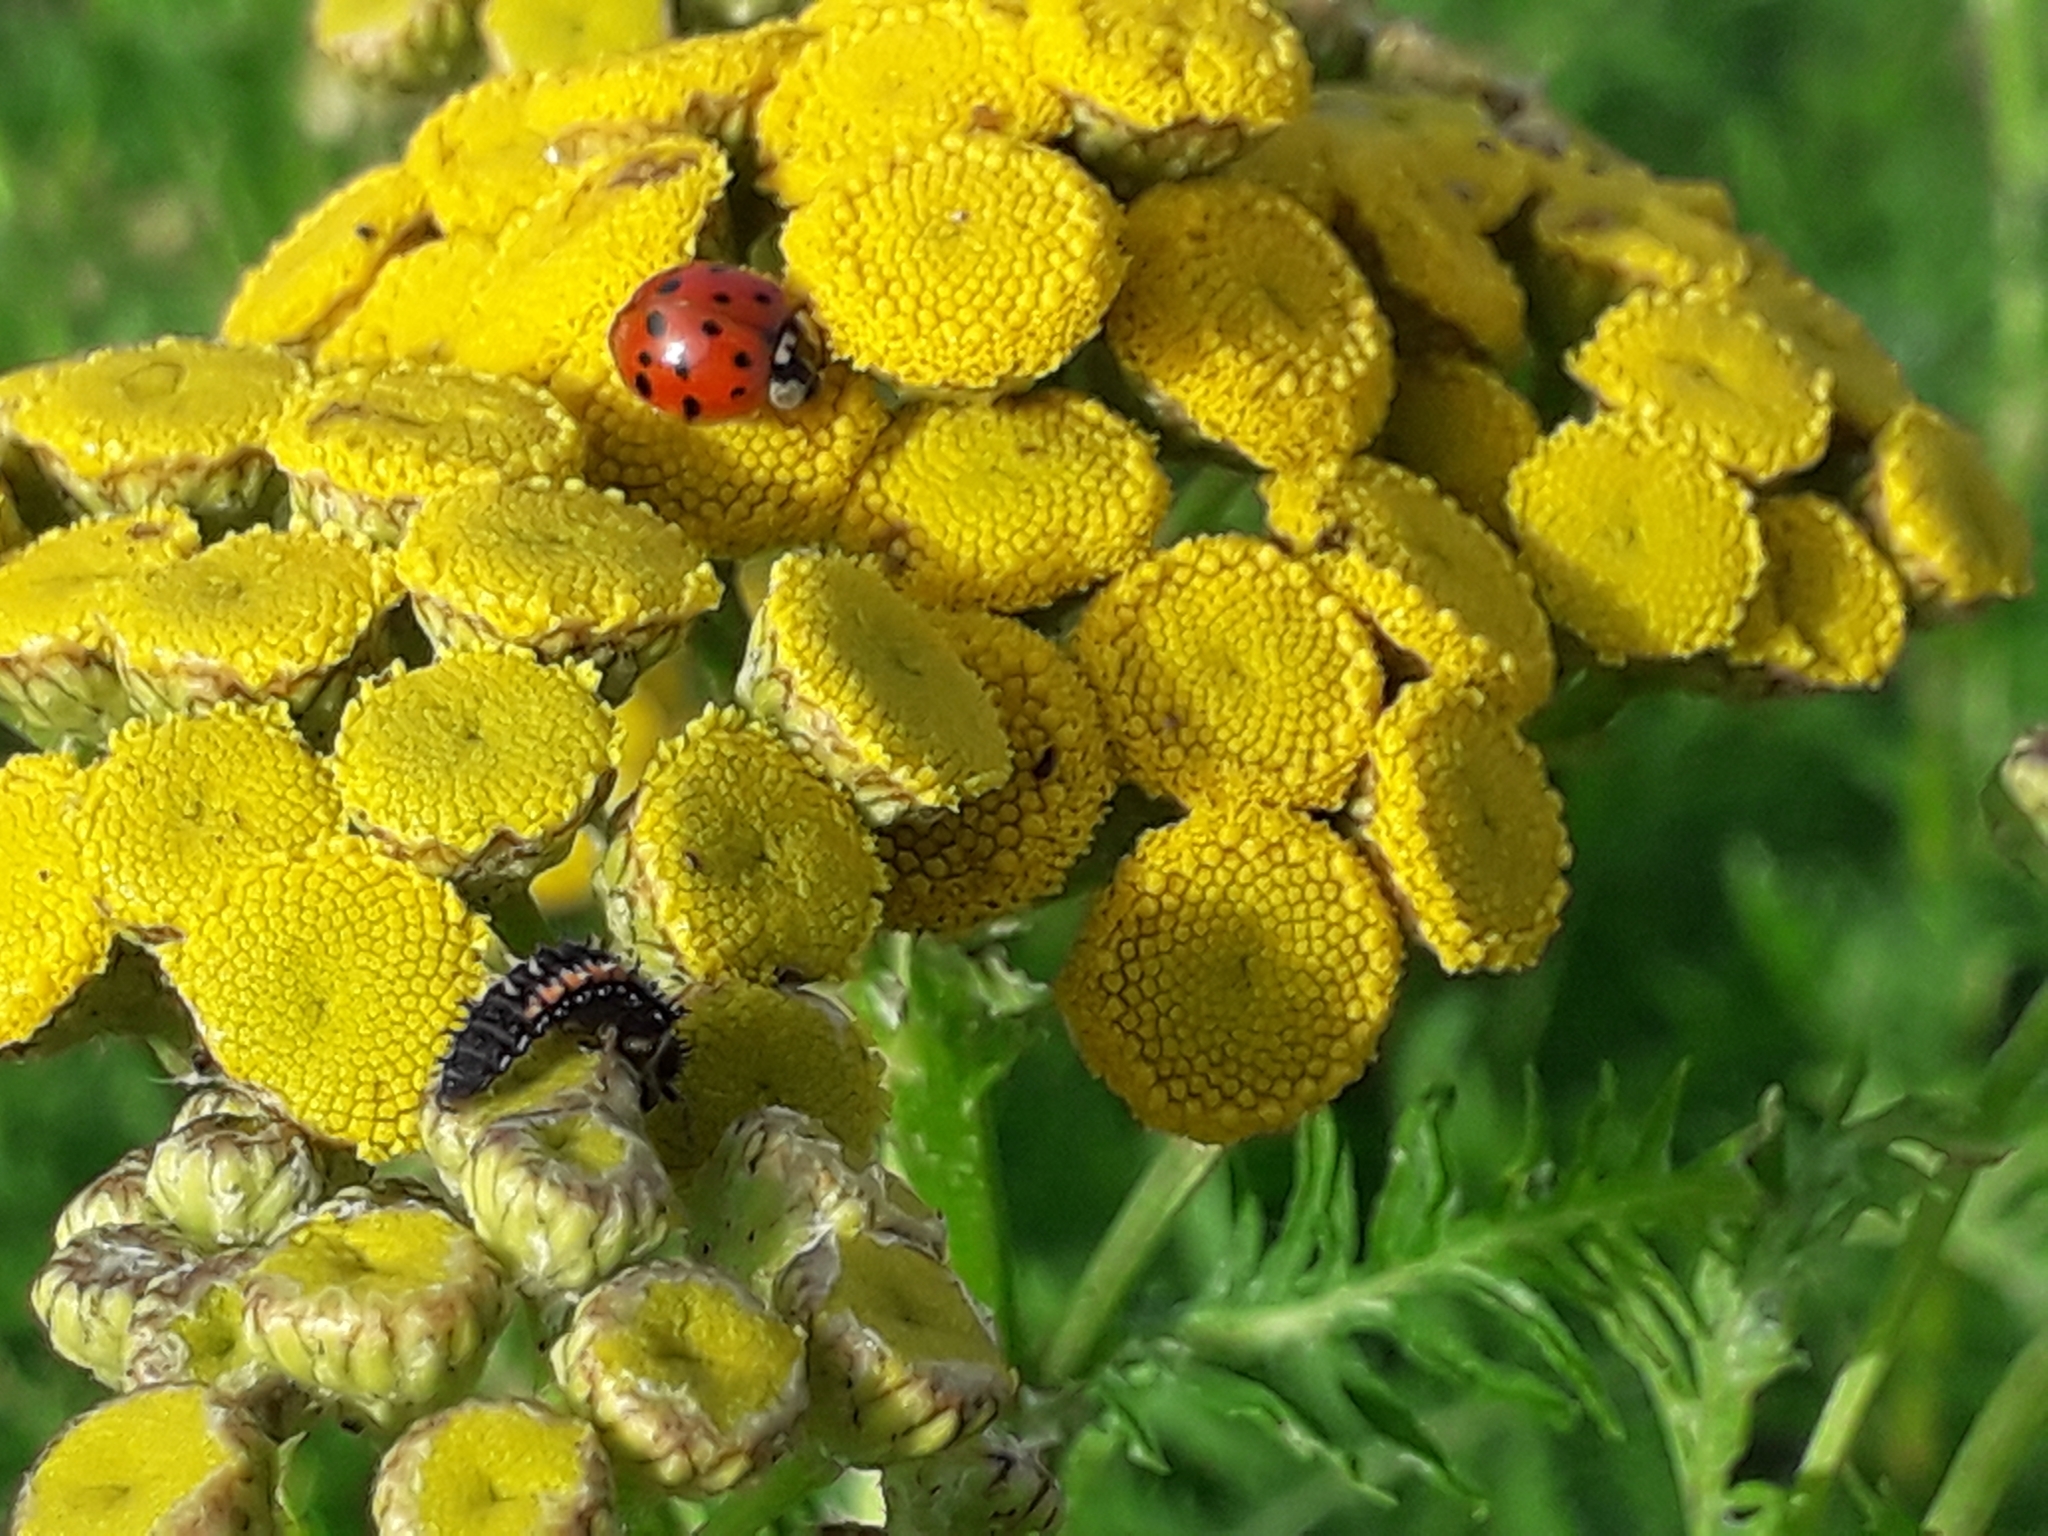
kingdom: Animalia
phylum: Arthropoda
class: Insecta
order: Coleoptera
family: Coccinellidae
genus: Harmonia
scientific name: Harmonia axyridis
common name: Harlequin ladybird
